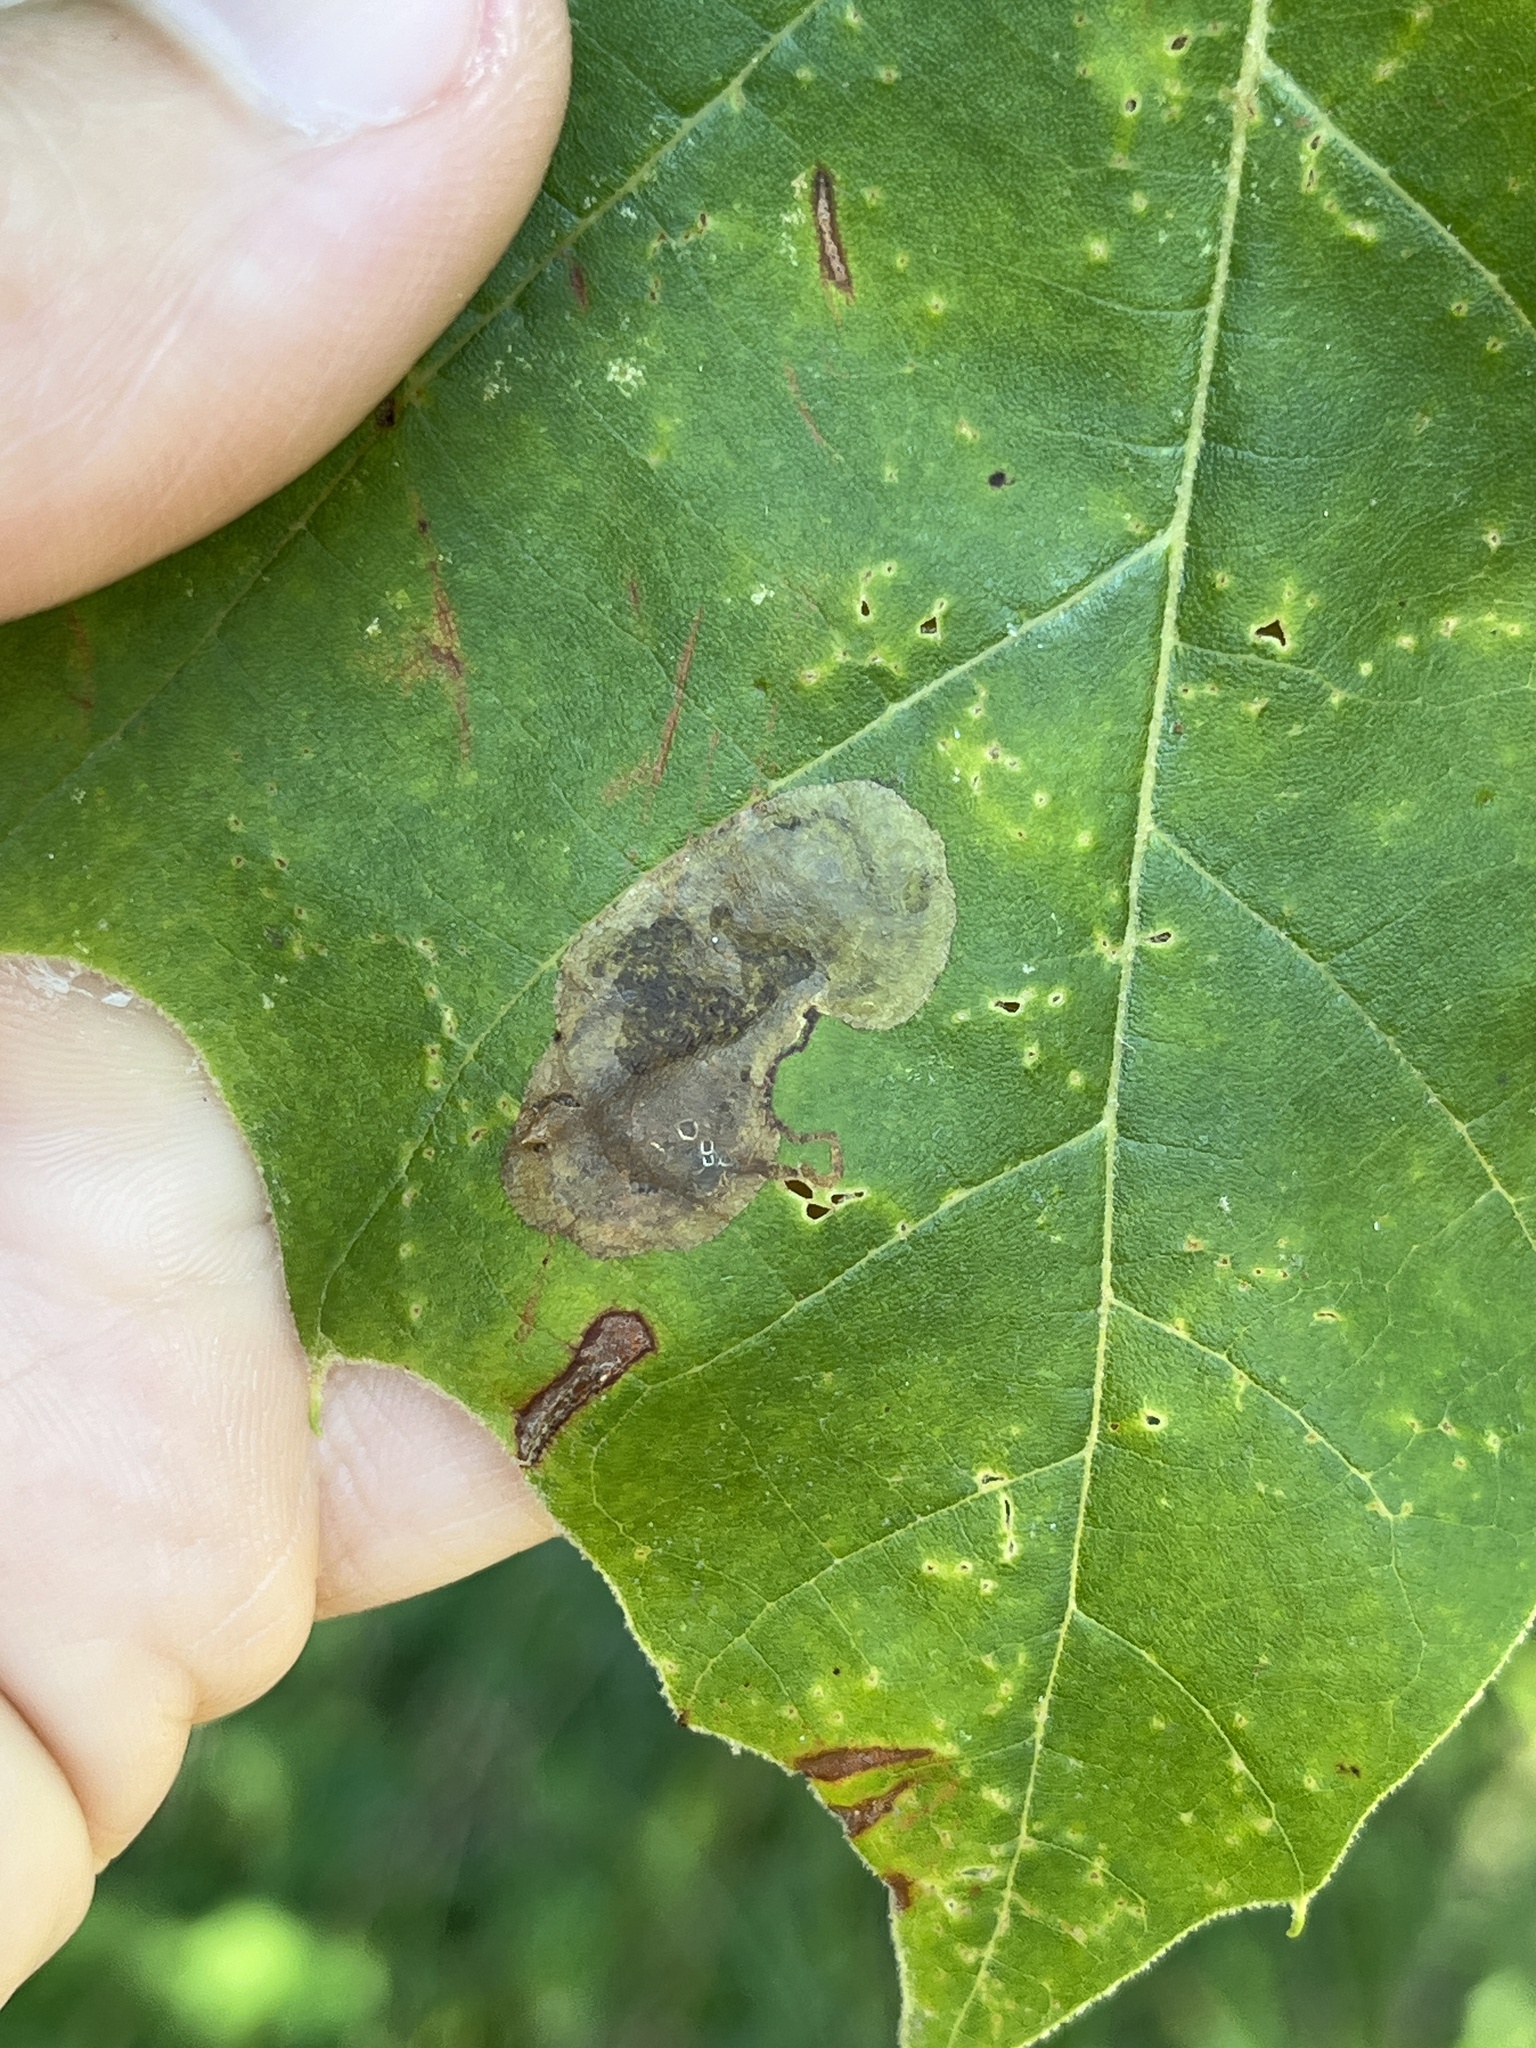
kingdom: Animalia
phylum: Arthropoda
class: Insecta
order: Lepidoptera
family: Nepticulidae
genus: Ectoedemia
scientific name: Ectoedemia platanella
